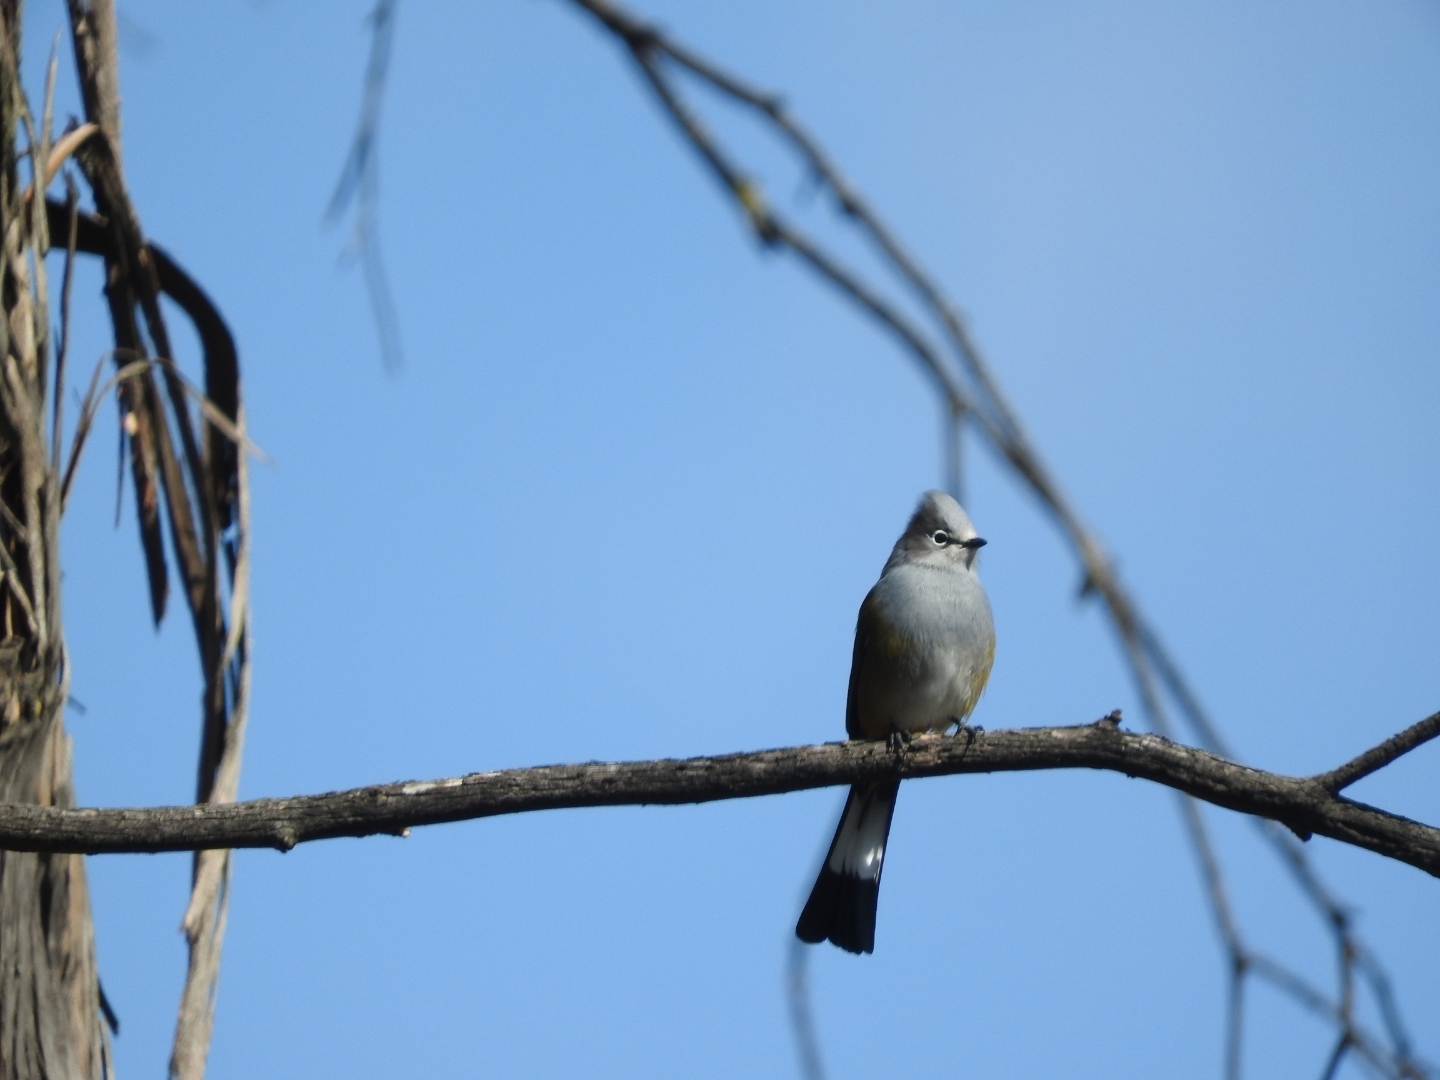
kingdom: Animalia
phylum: Chordata
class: Aves
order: Passeriformes
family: Ptilogonatidae
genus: Ptilogonys
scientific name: Ptilogonys cinereus
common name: Gray silky-flycatcher
